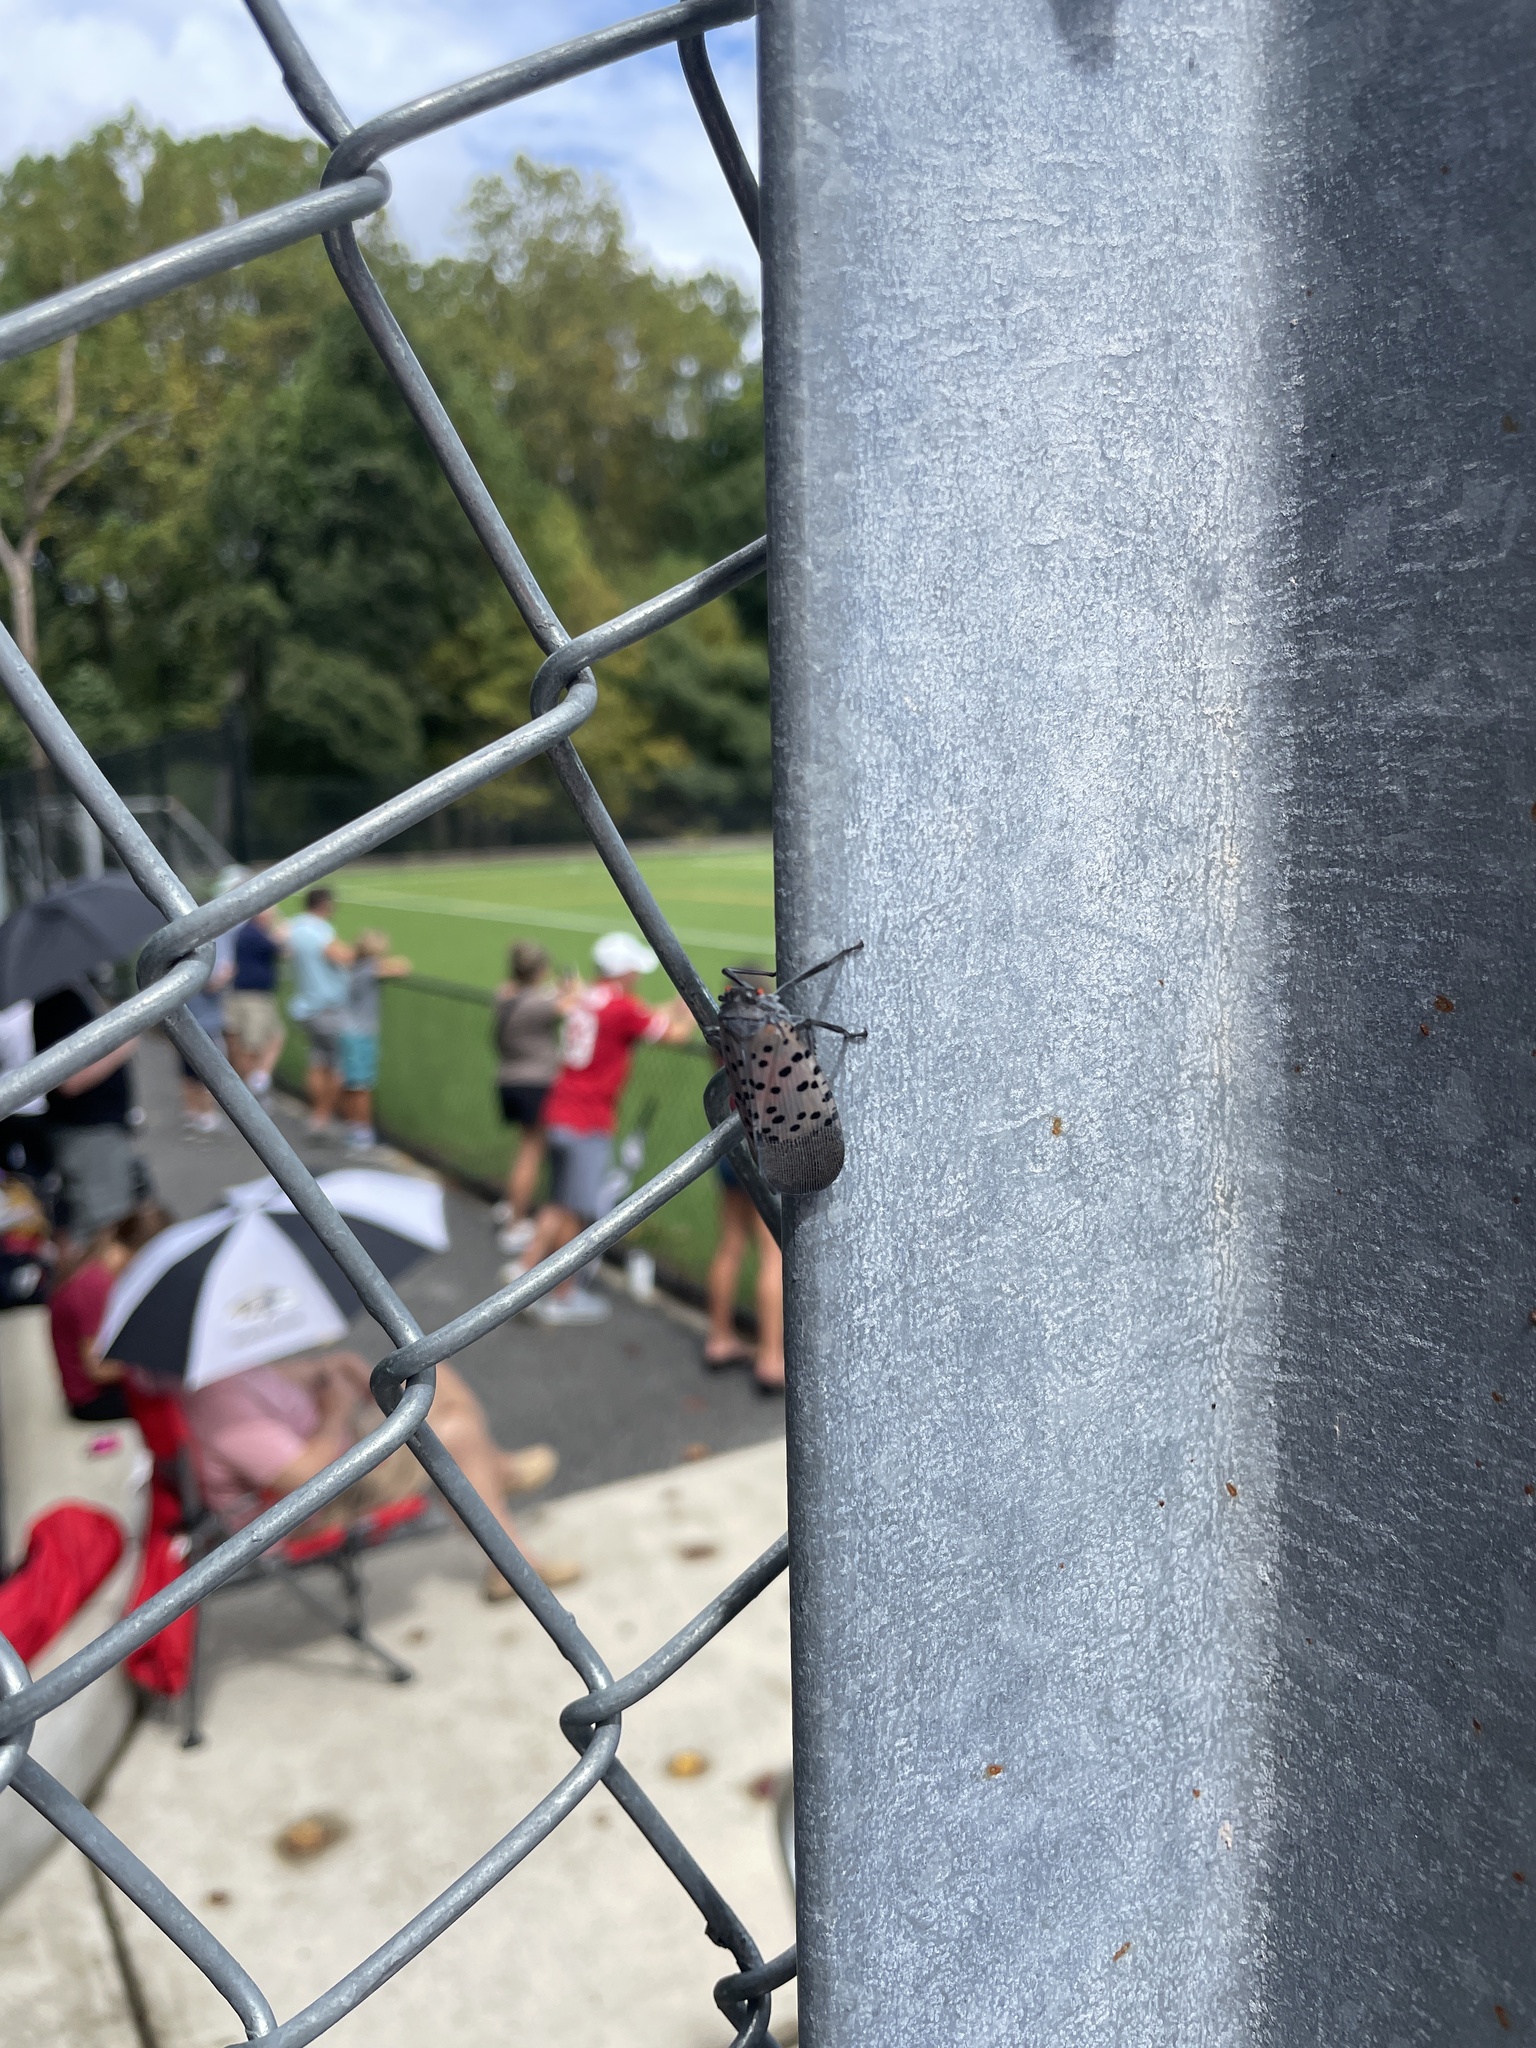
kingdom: Animalia
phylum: Arthropoda
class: Insecta
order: Hemiptera
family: Fulgoridae
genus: Lycorma
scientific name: Lycorma delicatula
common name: Spotted lanternfly
